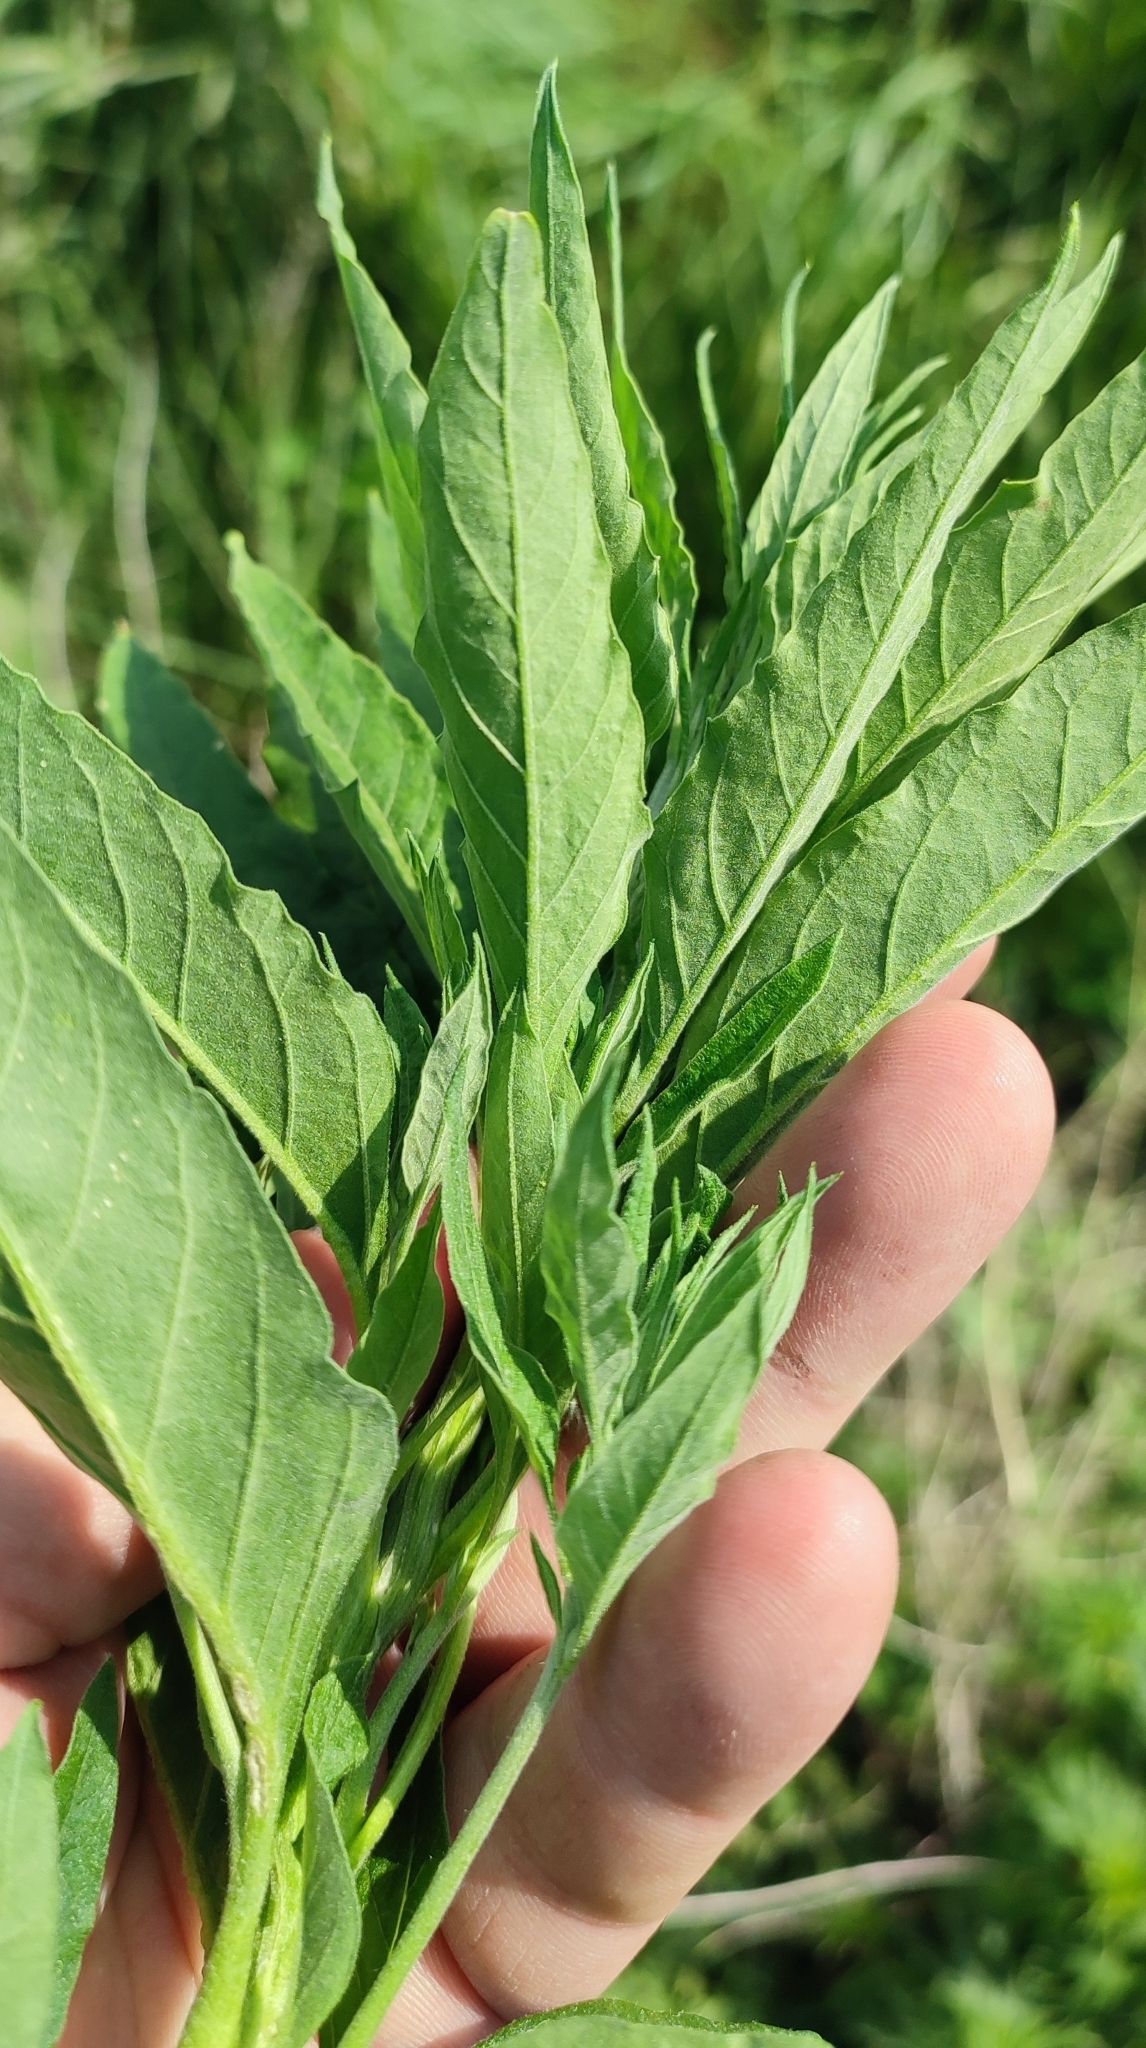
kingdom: Plantae
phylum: Tracheophyta
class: Magnoliopsida
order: Caryophyllales
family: Amaranthaceae
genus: Axyris
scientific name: Axyris amaranthoides
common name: Russian pigweed
